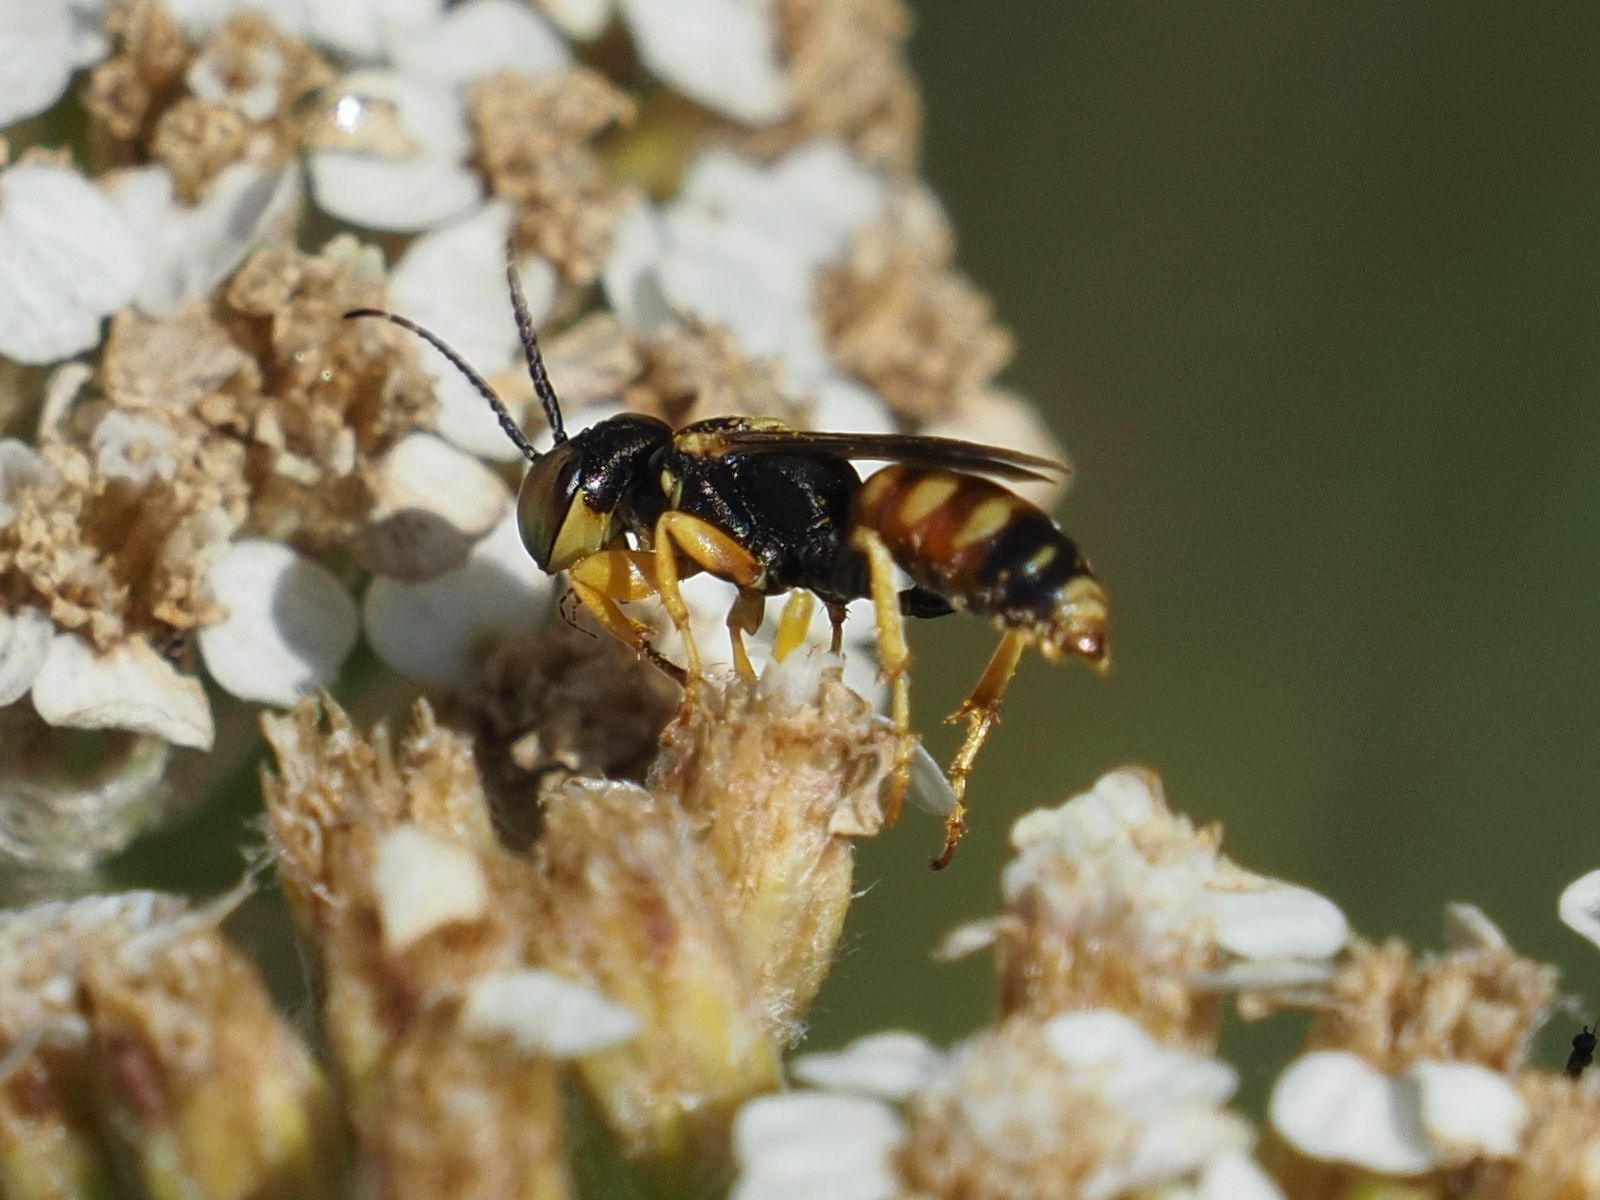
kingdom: Animalia
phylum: Arthropoda
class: Insecta
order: Hymenoptera
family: Crabronidae
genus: Dinetus
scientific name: Dinetus pictus
